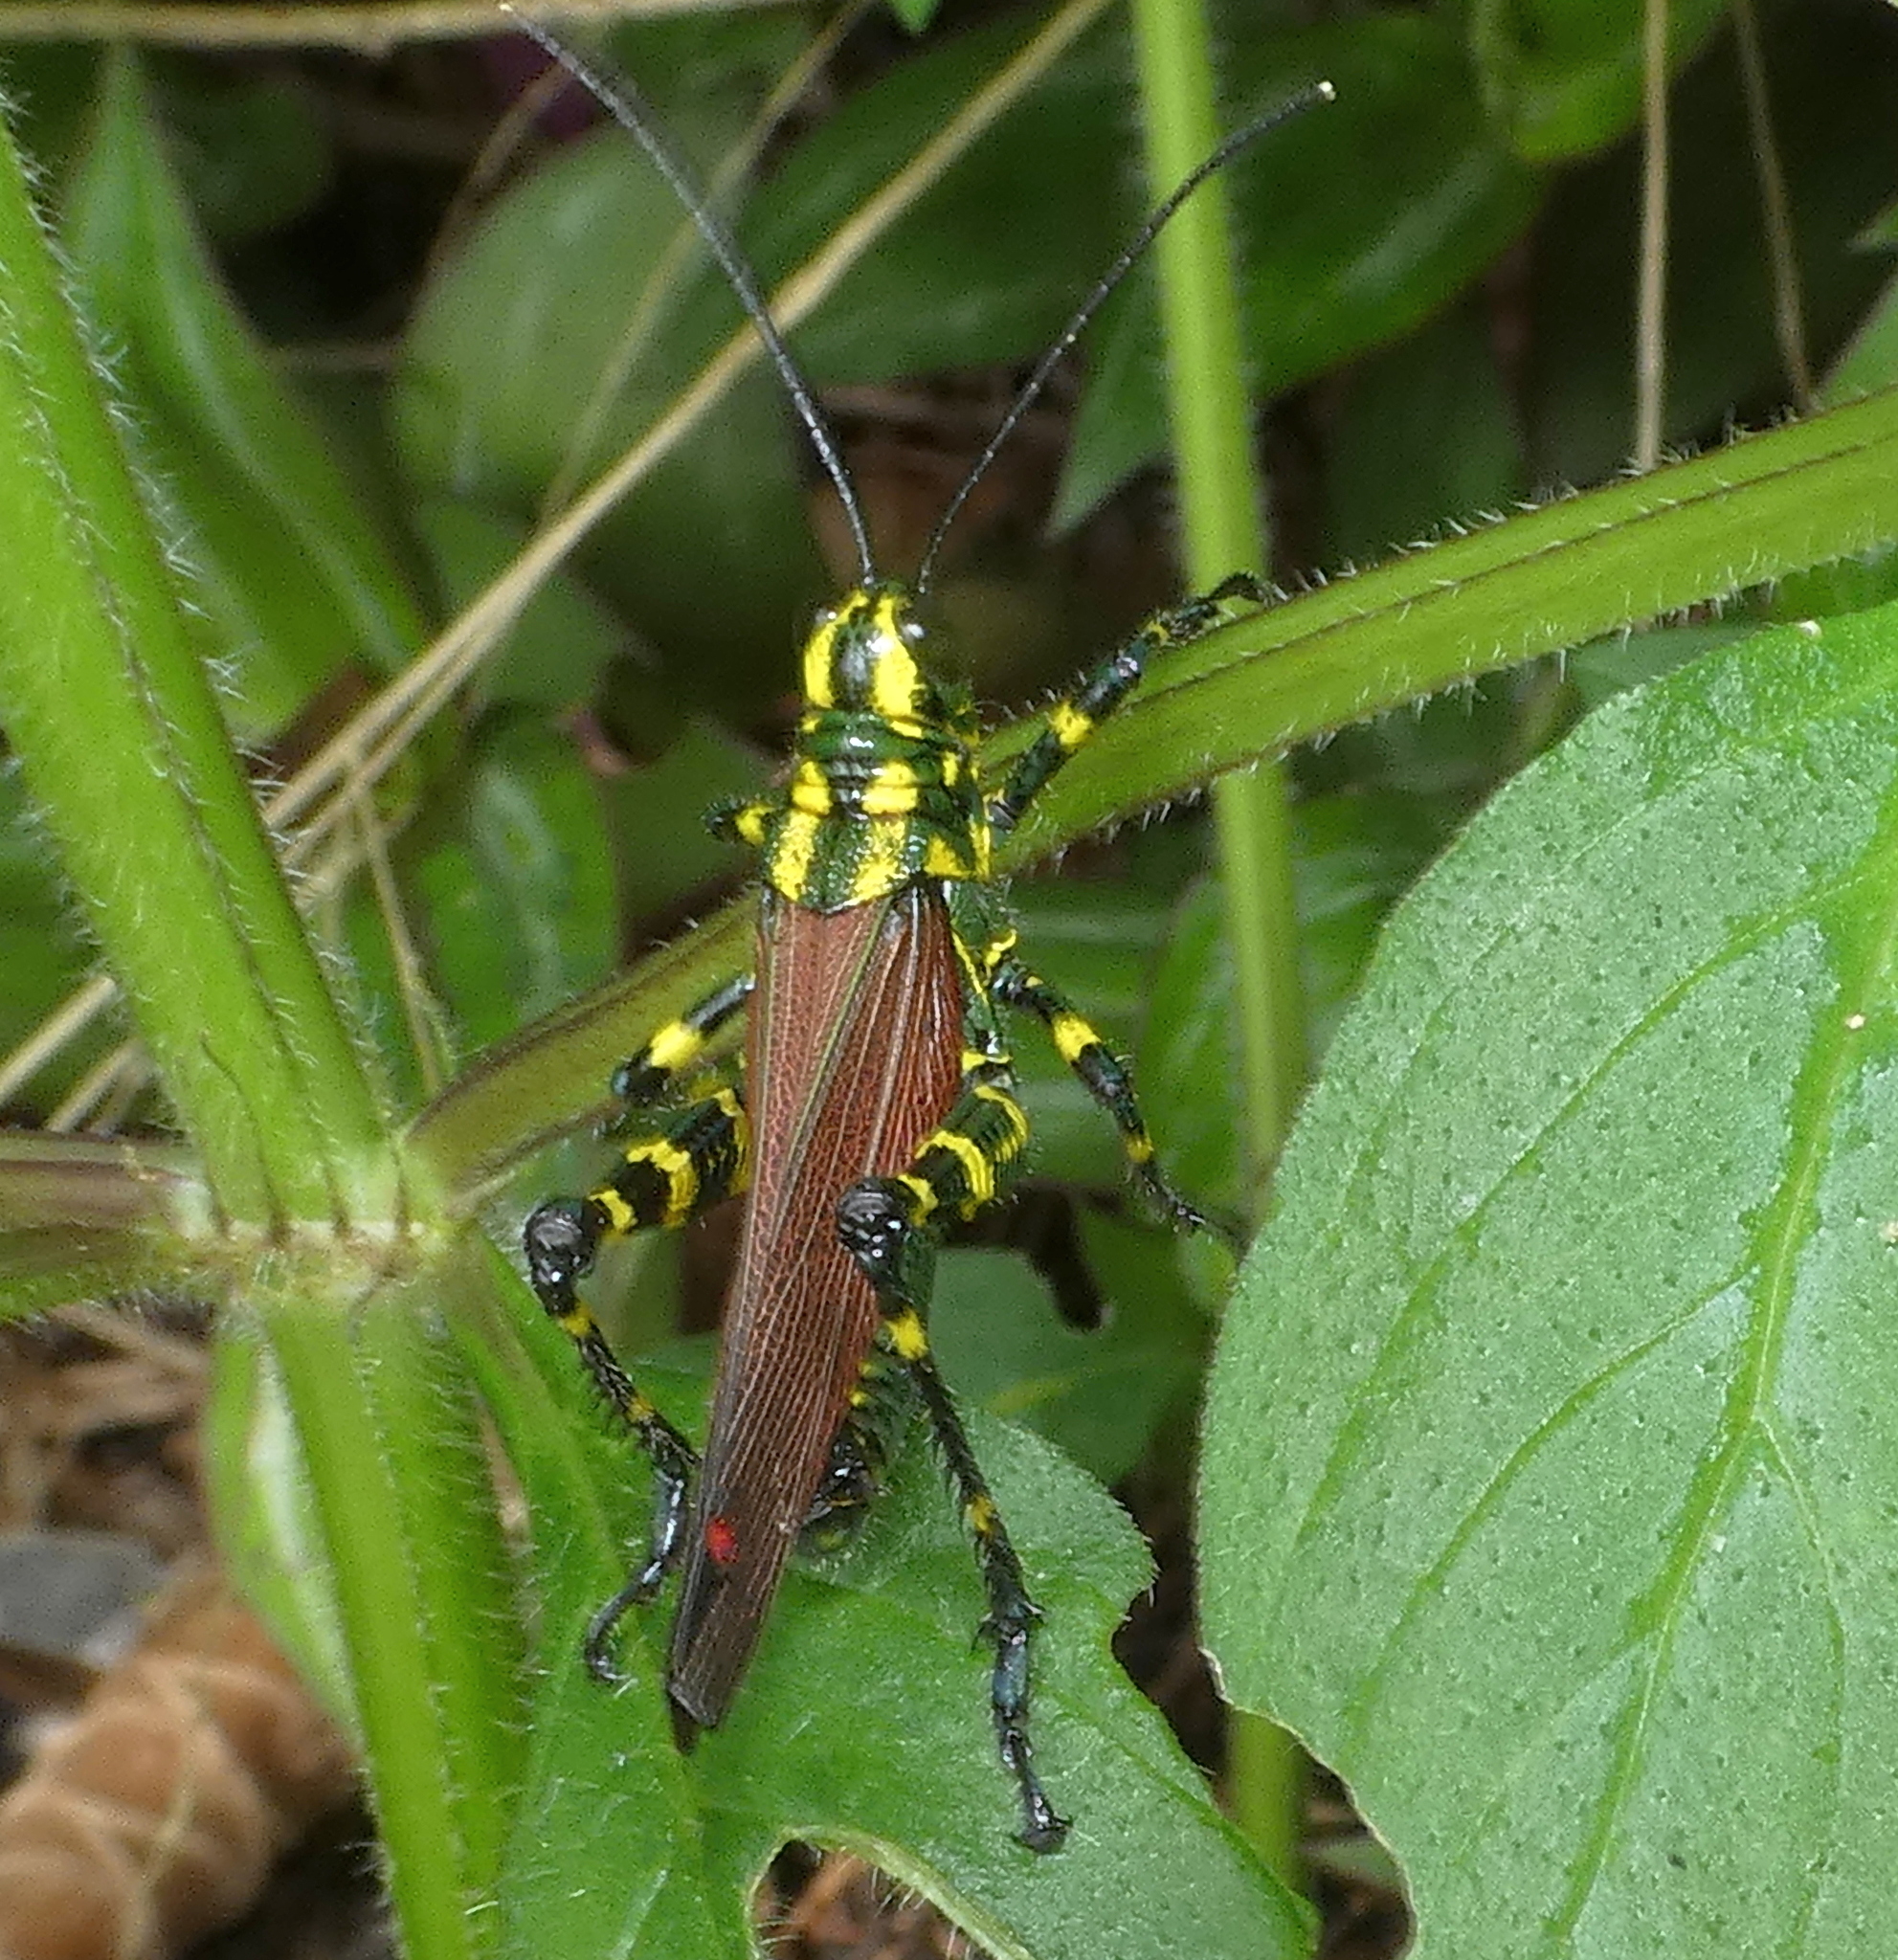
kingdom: Animalia
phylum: Arthropoda
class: Insecta
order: Orthoptera
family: Romaleidae
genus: Chromacris
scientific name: Chromacris speciosa
